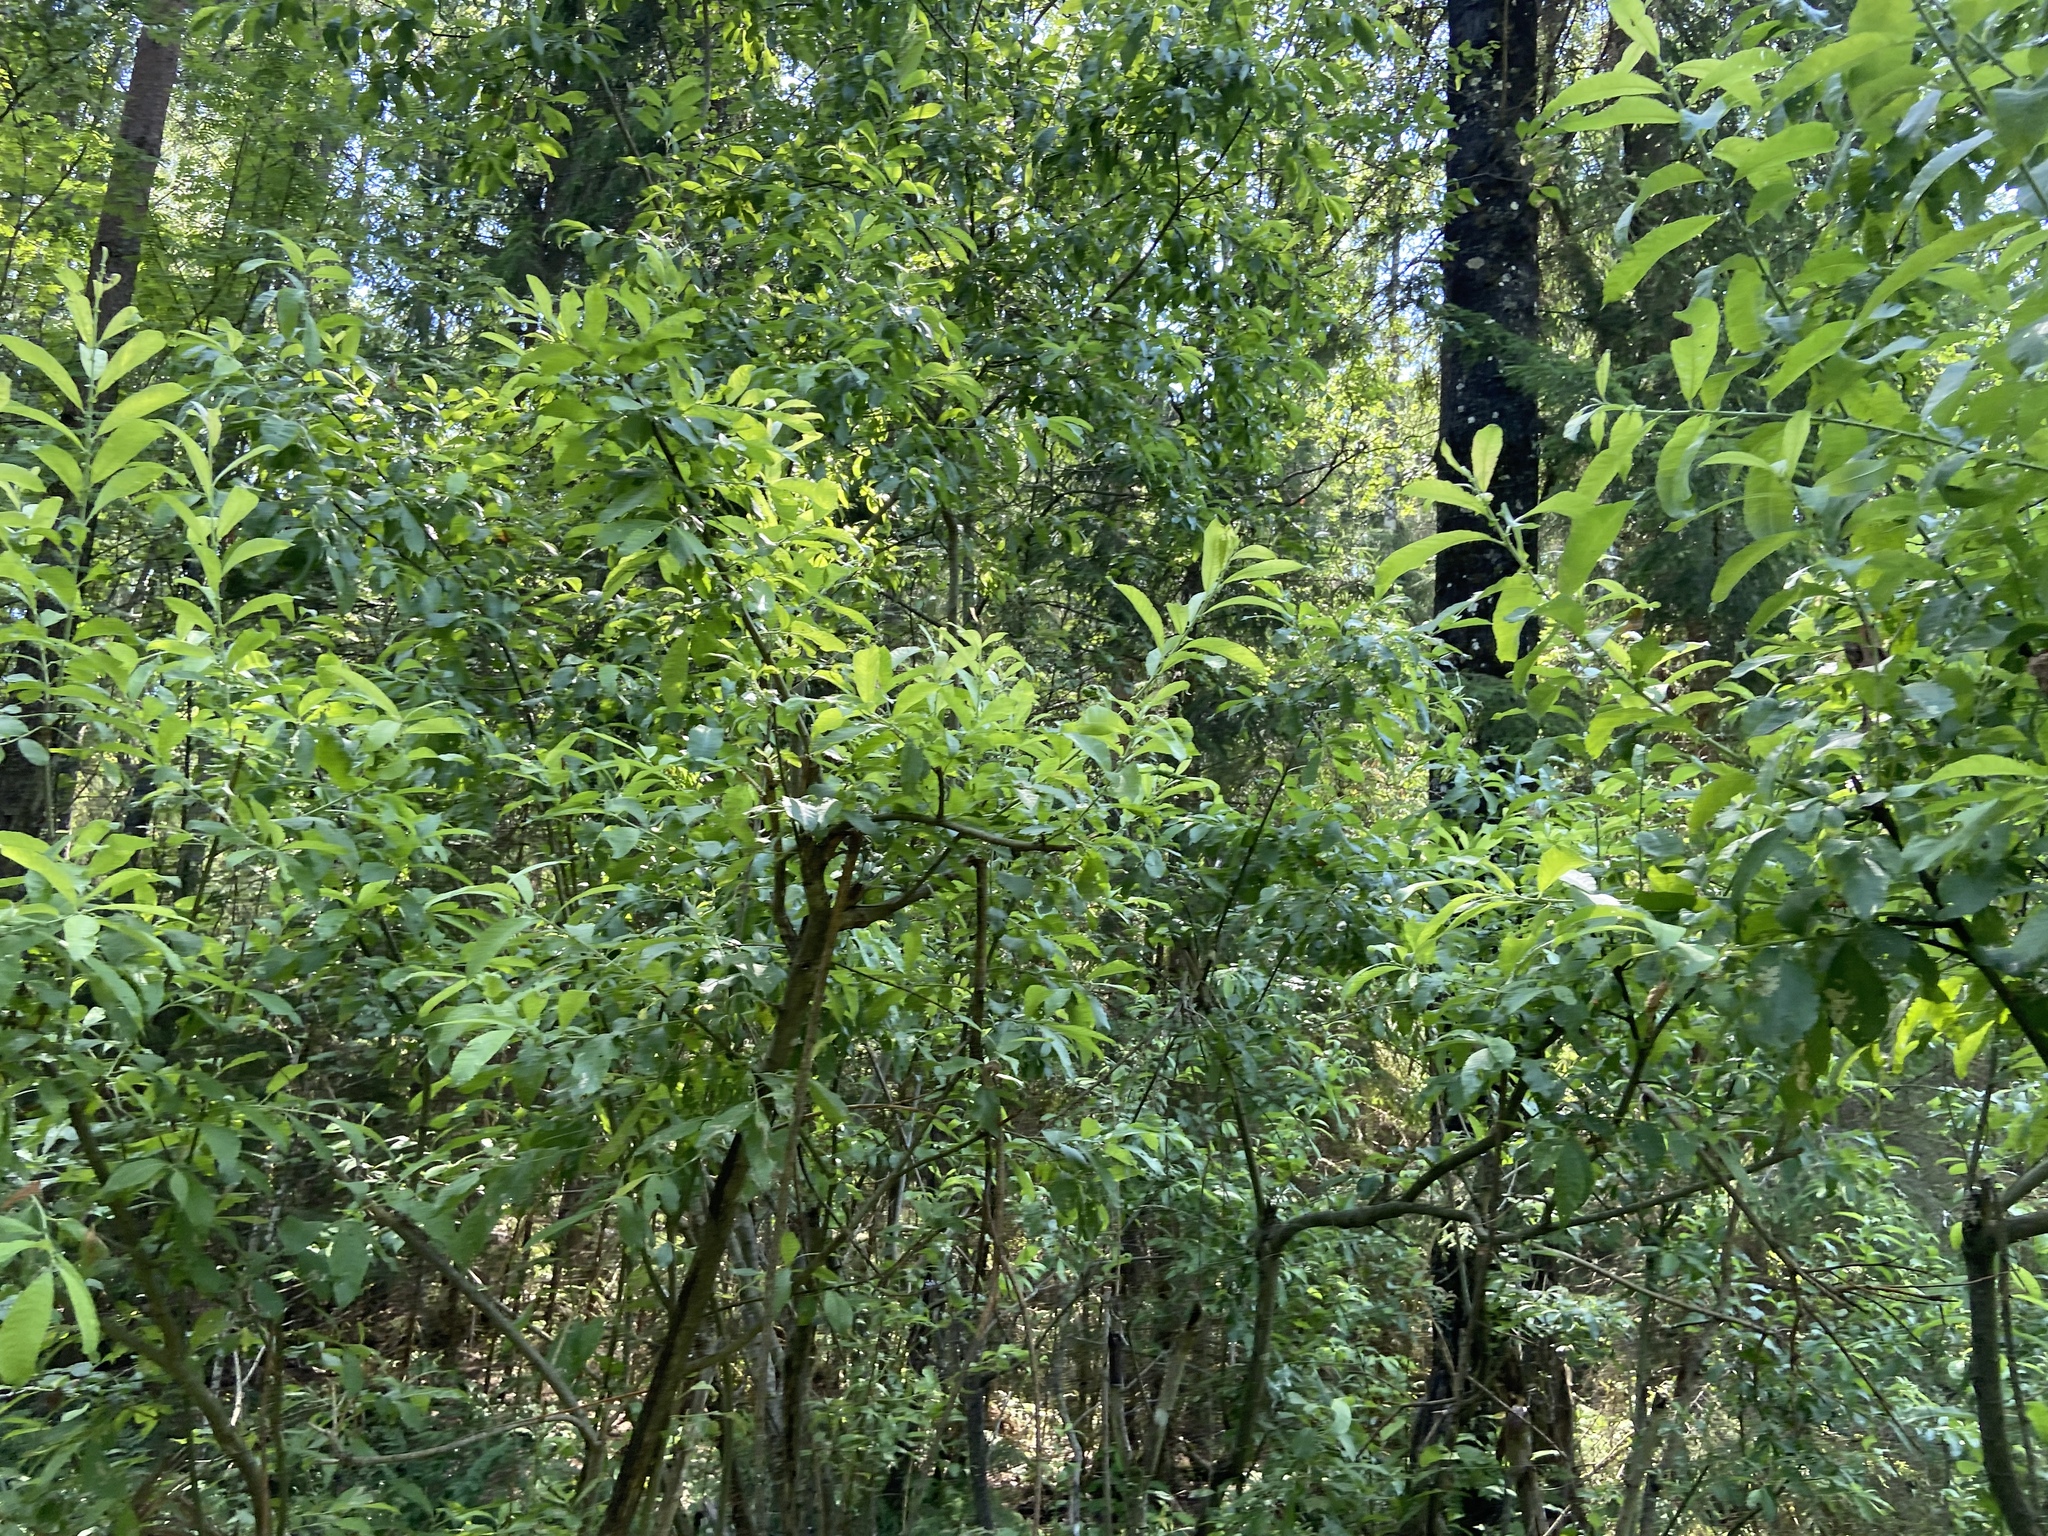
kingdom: Plantae
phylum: Tracheophyta
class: Magnoliopsida
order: Malpighiales
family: Salicaceae
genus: Salix
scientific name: Salix caprea
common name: Goat willow
